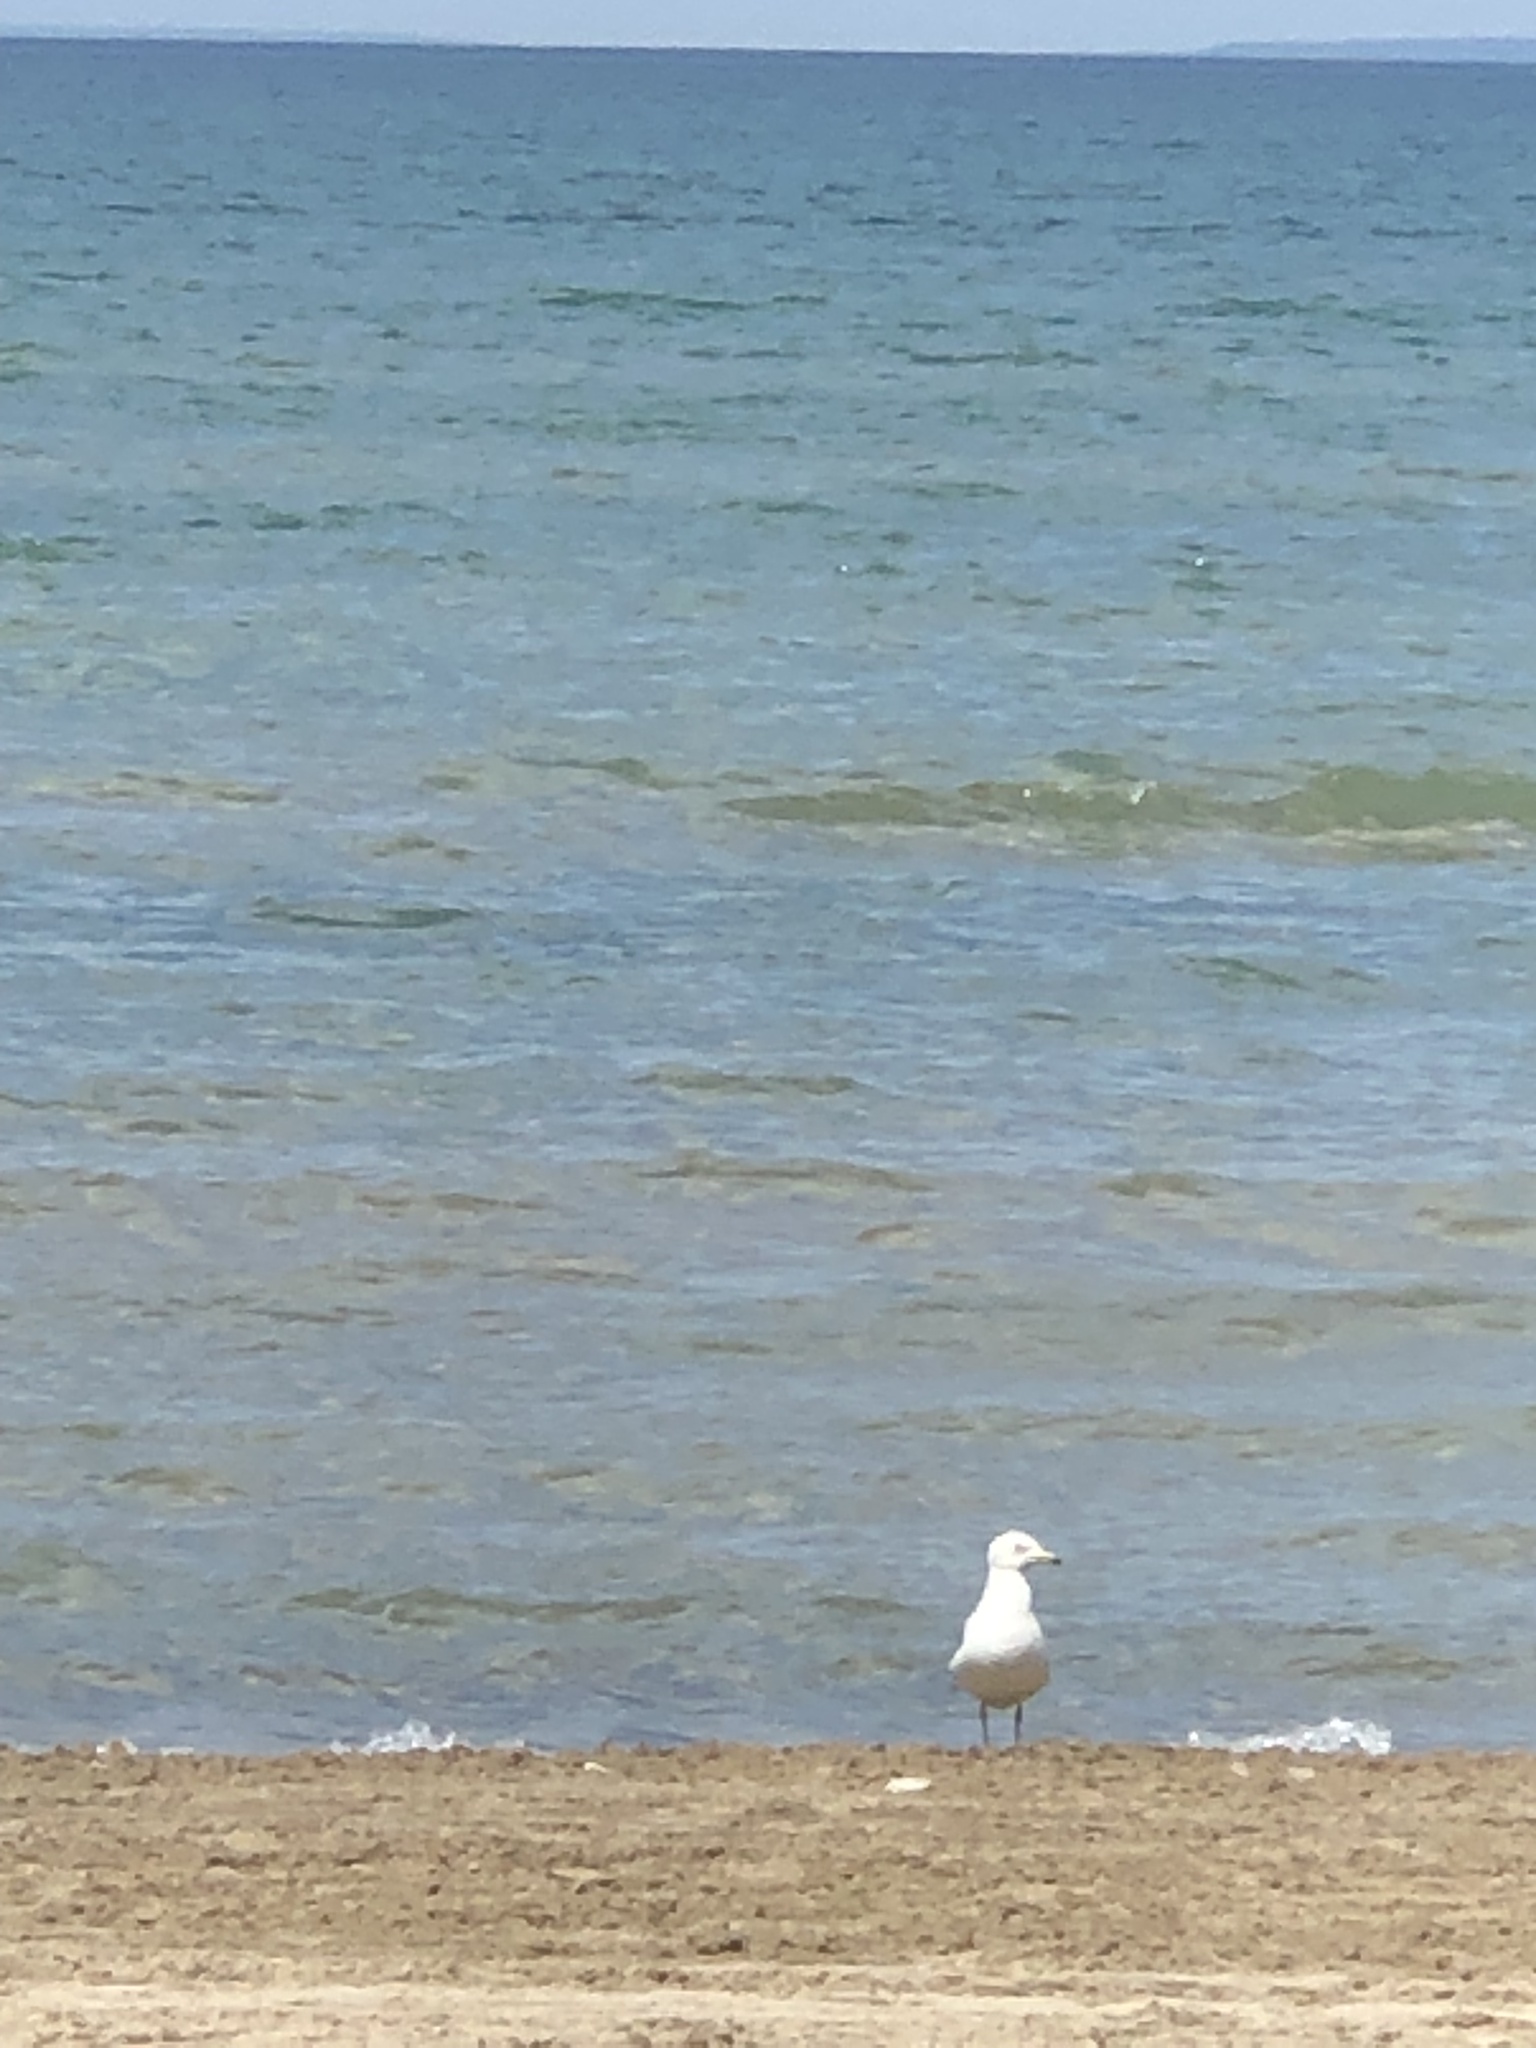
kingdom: Animalia
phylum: Chordata
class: Aves
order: Charadriiformes
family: Laridae
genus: Larus
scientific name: Larus delawarensis
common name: Ring-billed gull
